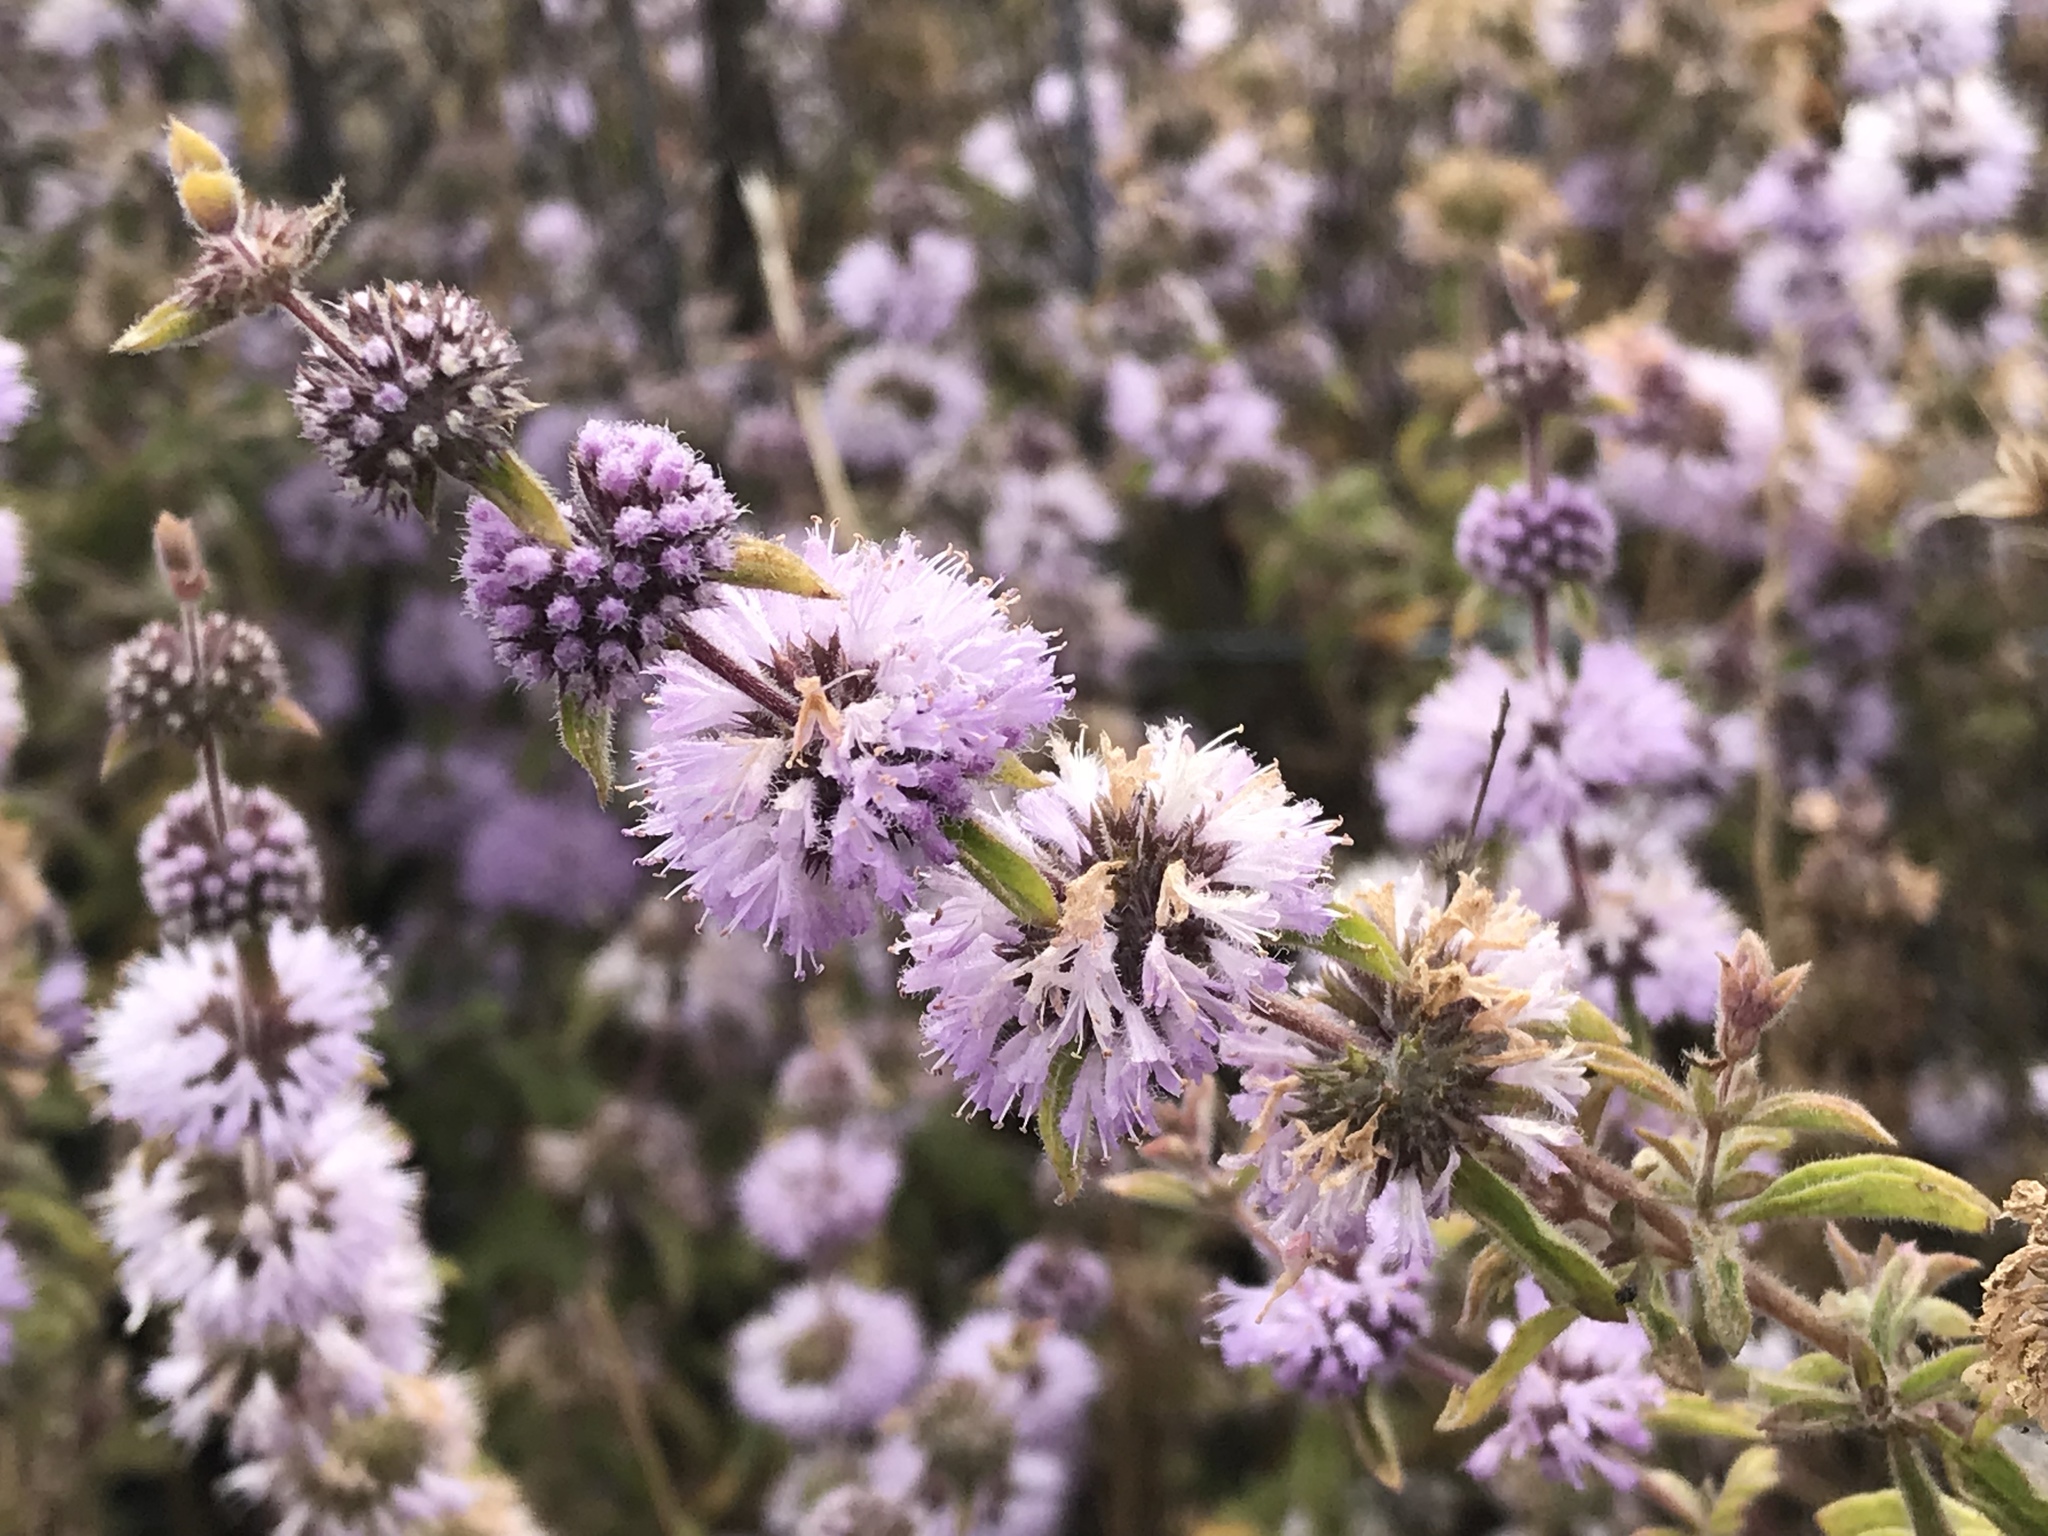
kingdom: Plantae
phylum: Tracheophyta
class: Magnoliopsida
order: Lamiales
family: Lamiaceae
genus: Mentha
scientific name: Mentha pulegium
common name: Pennyroyal
